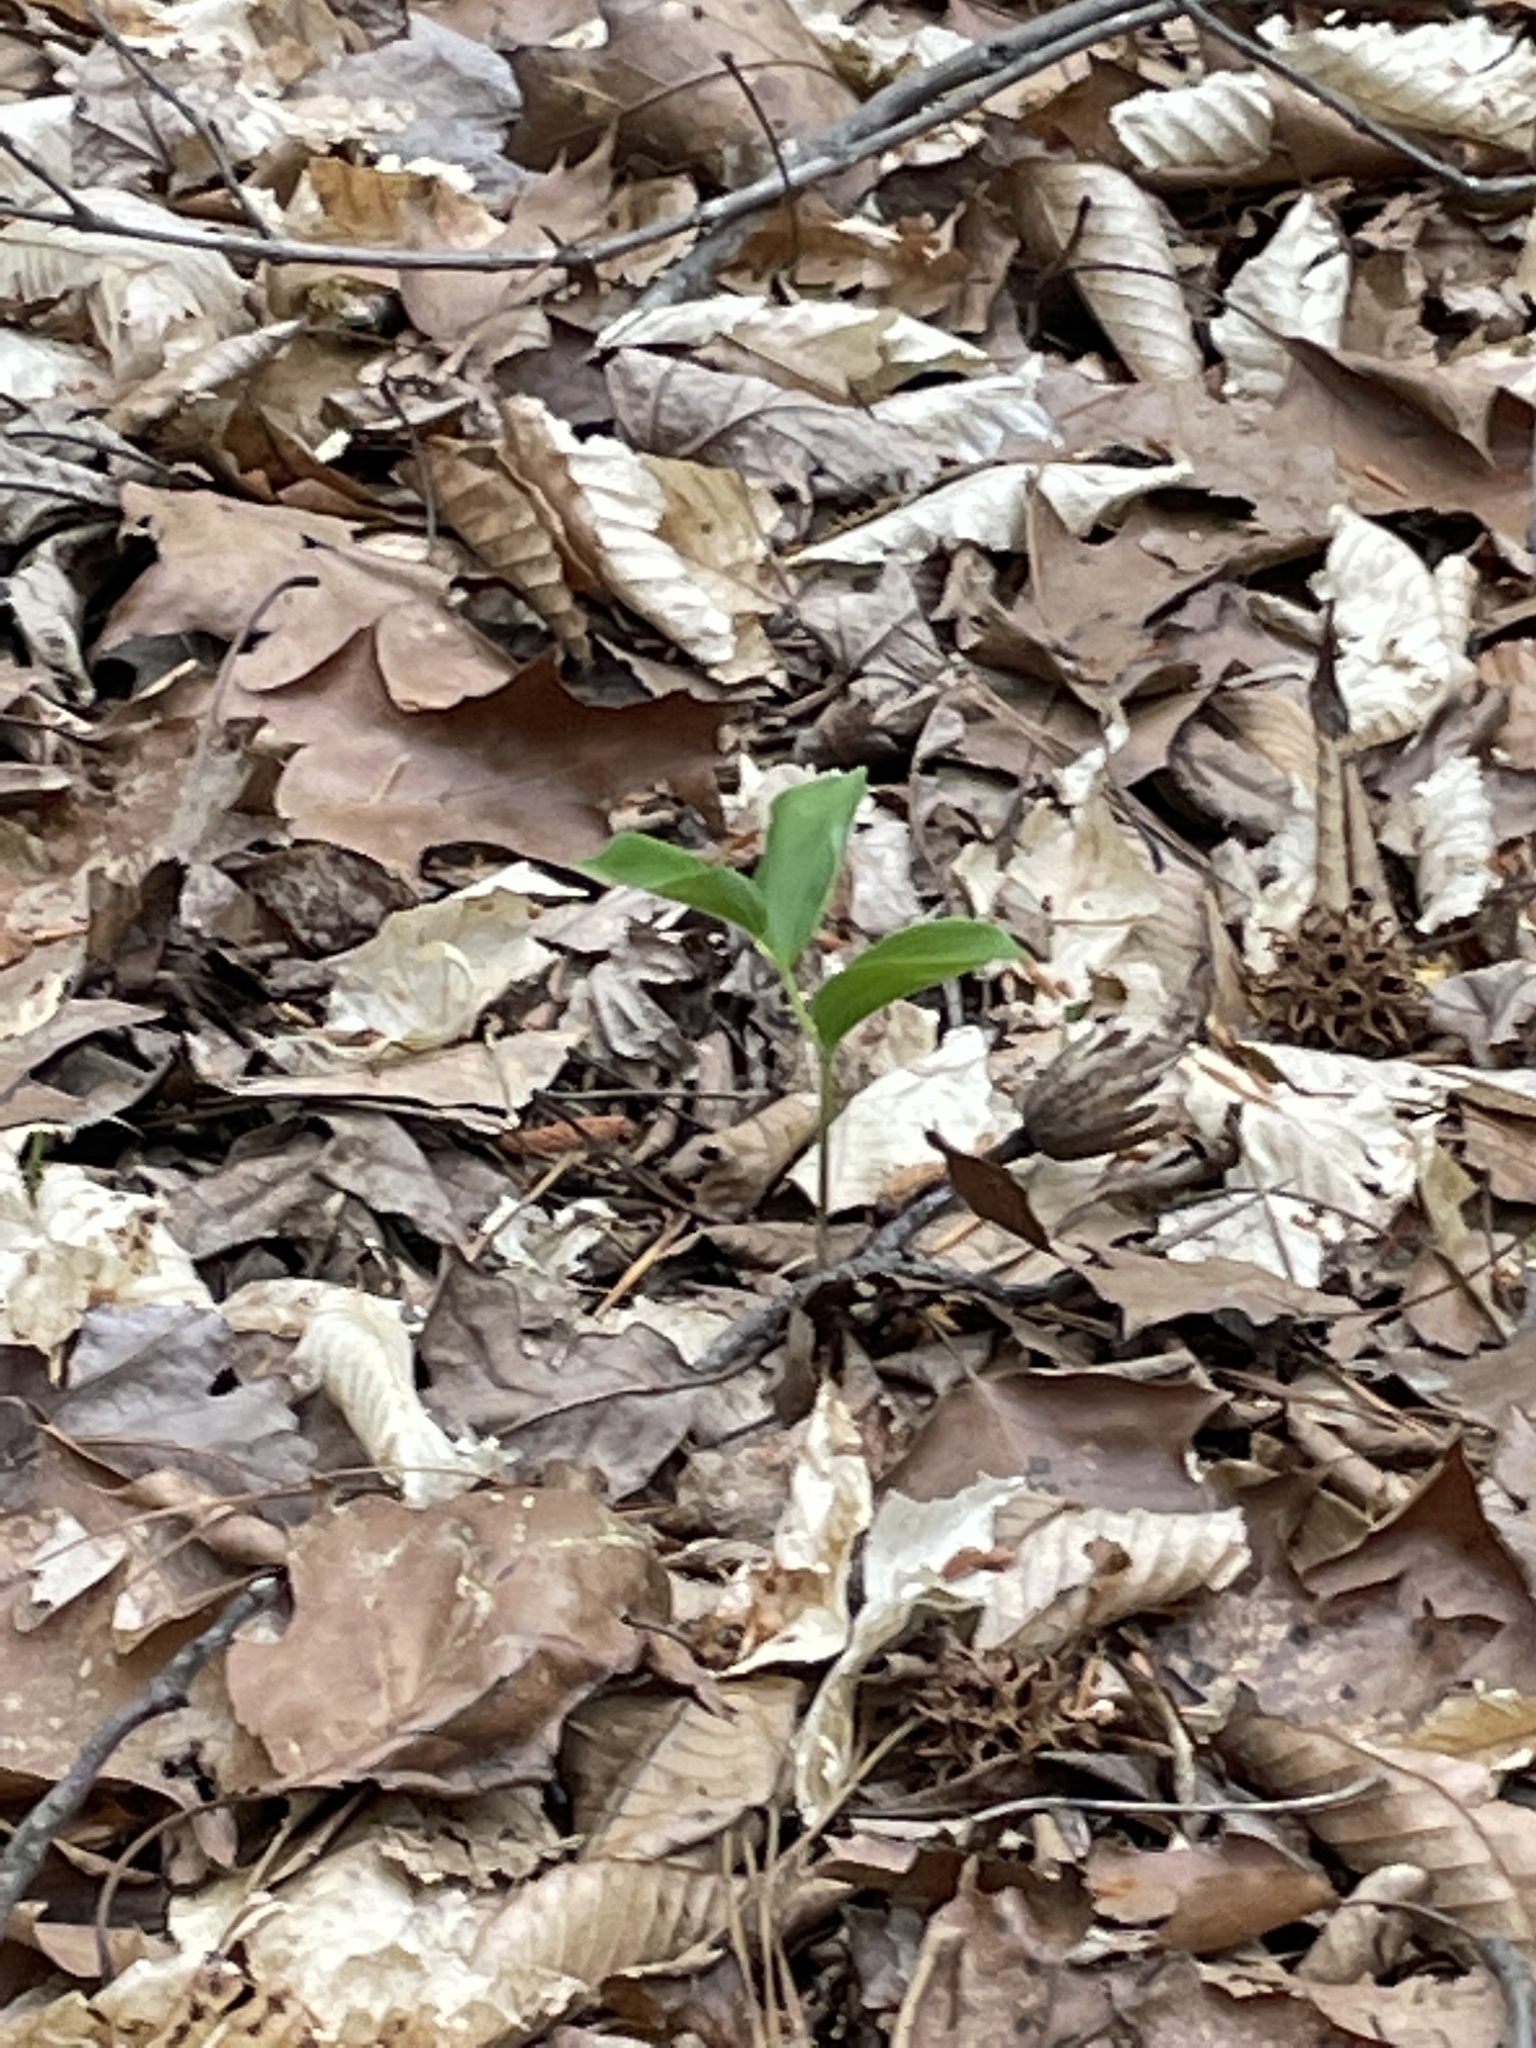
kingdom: Plantae
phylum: Tracheophyta
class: Liliopsida
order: Asparagales
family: Asparagaceae
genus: Maianthemum
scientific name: Maianthemum racemosum
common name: False spikenard
